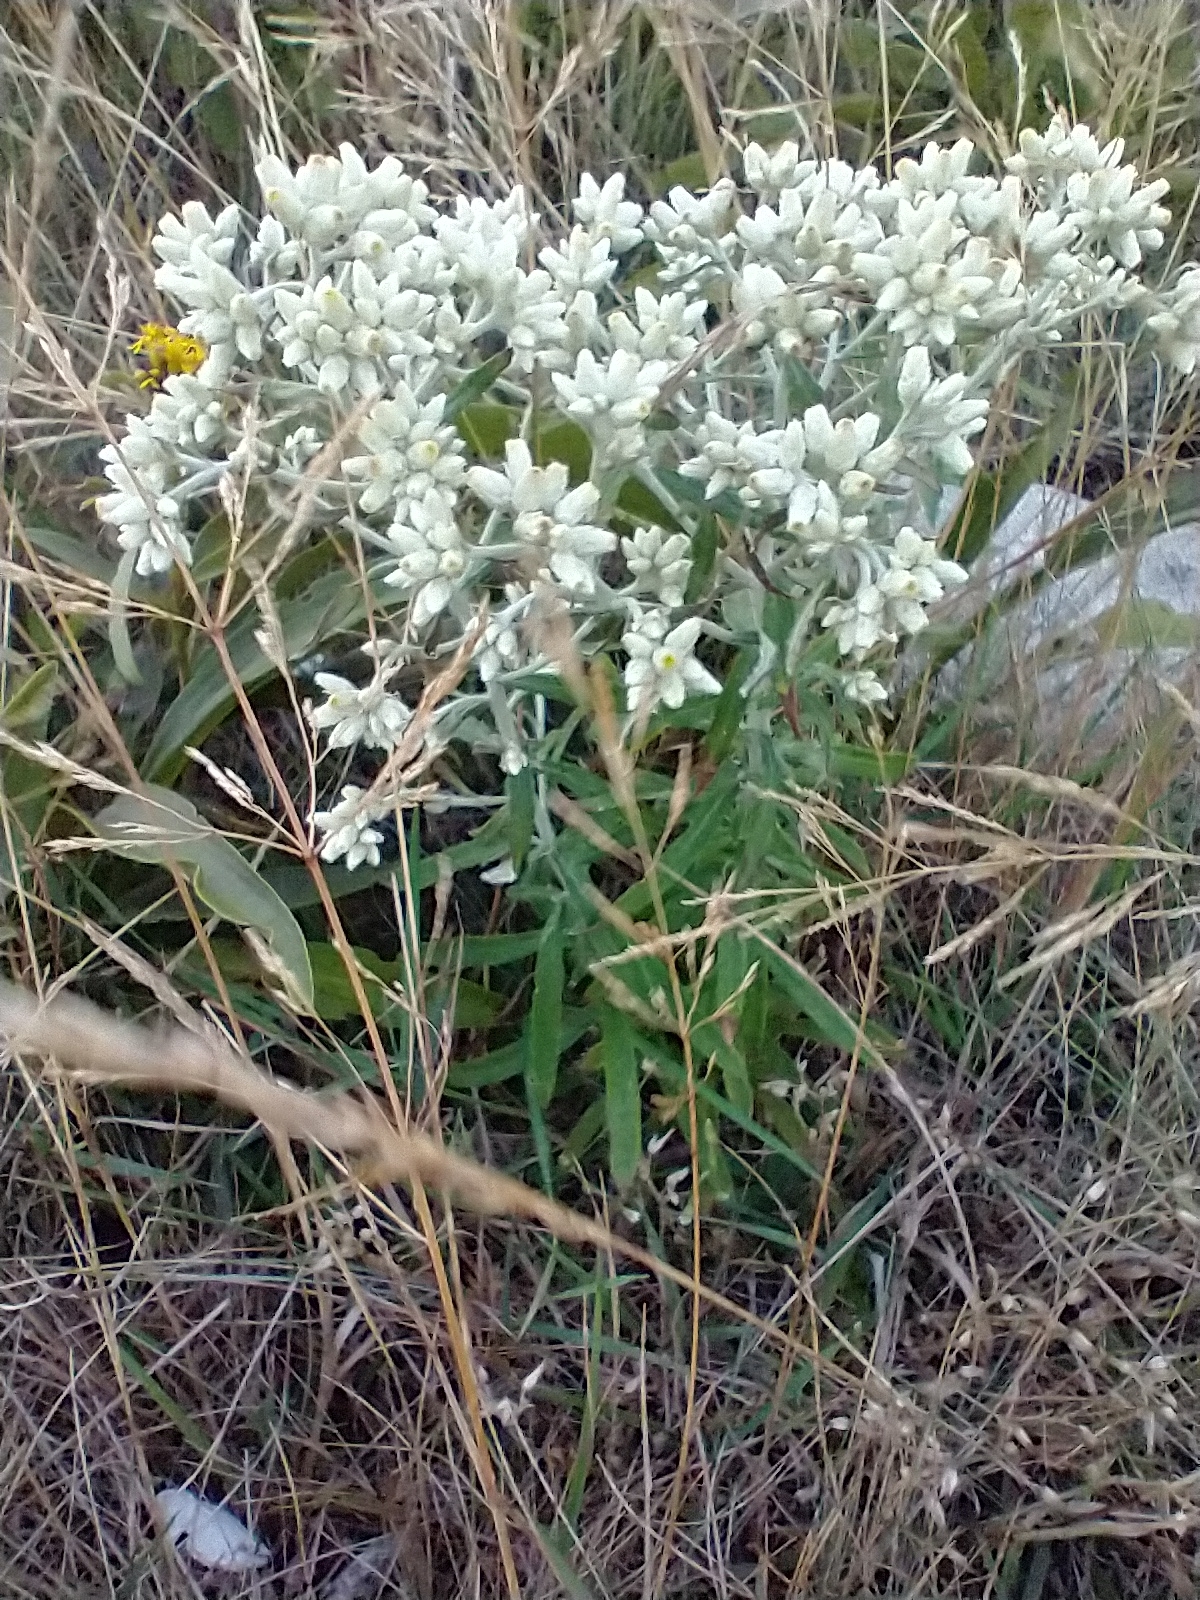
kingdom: Plantae
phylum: Tracheophyta
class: Magnoliopsida
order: Asterales
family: Asteraceae
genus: Pseudognaphalium
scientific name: Pseudognaphalium obtusifolium
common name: Eastern rabbit-tobacco
